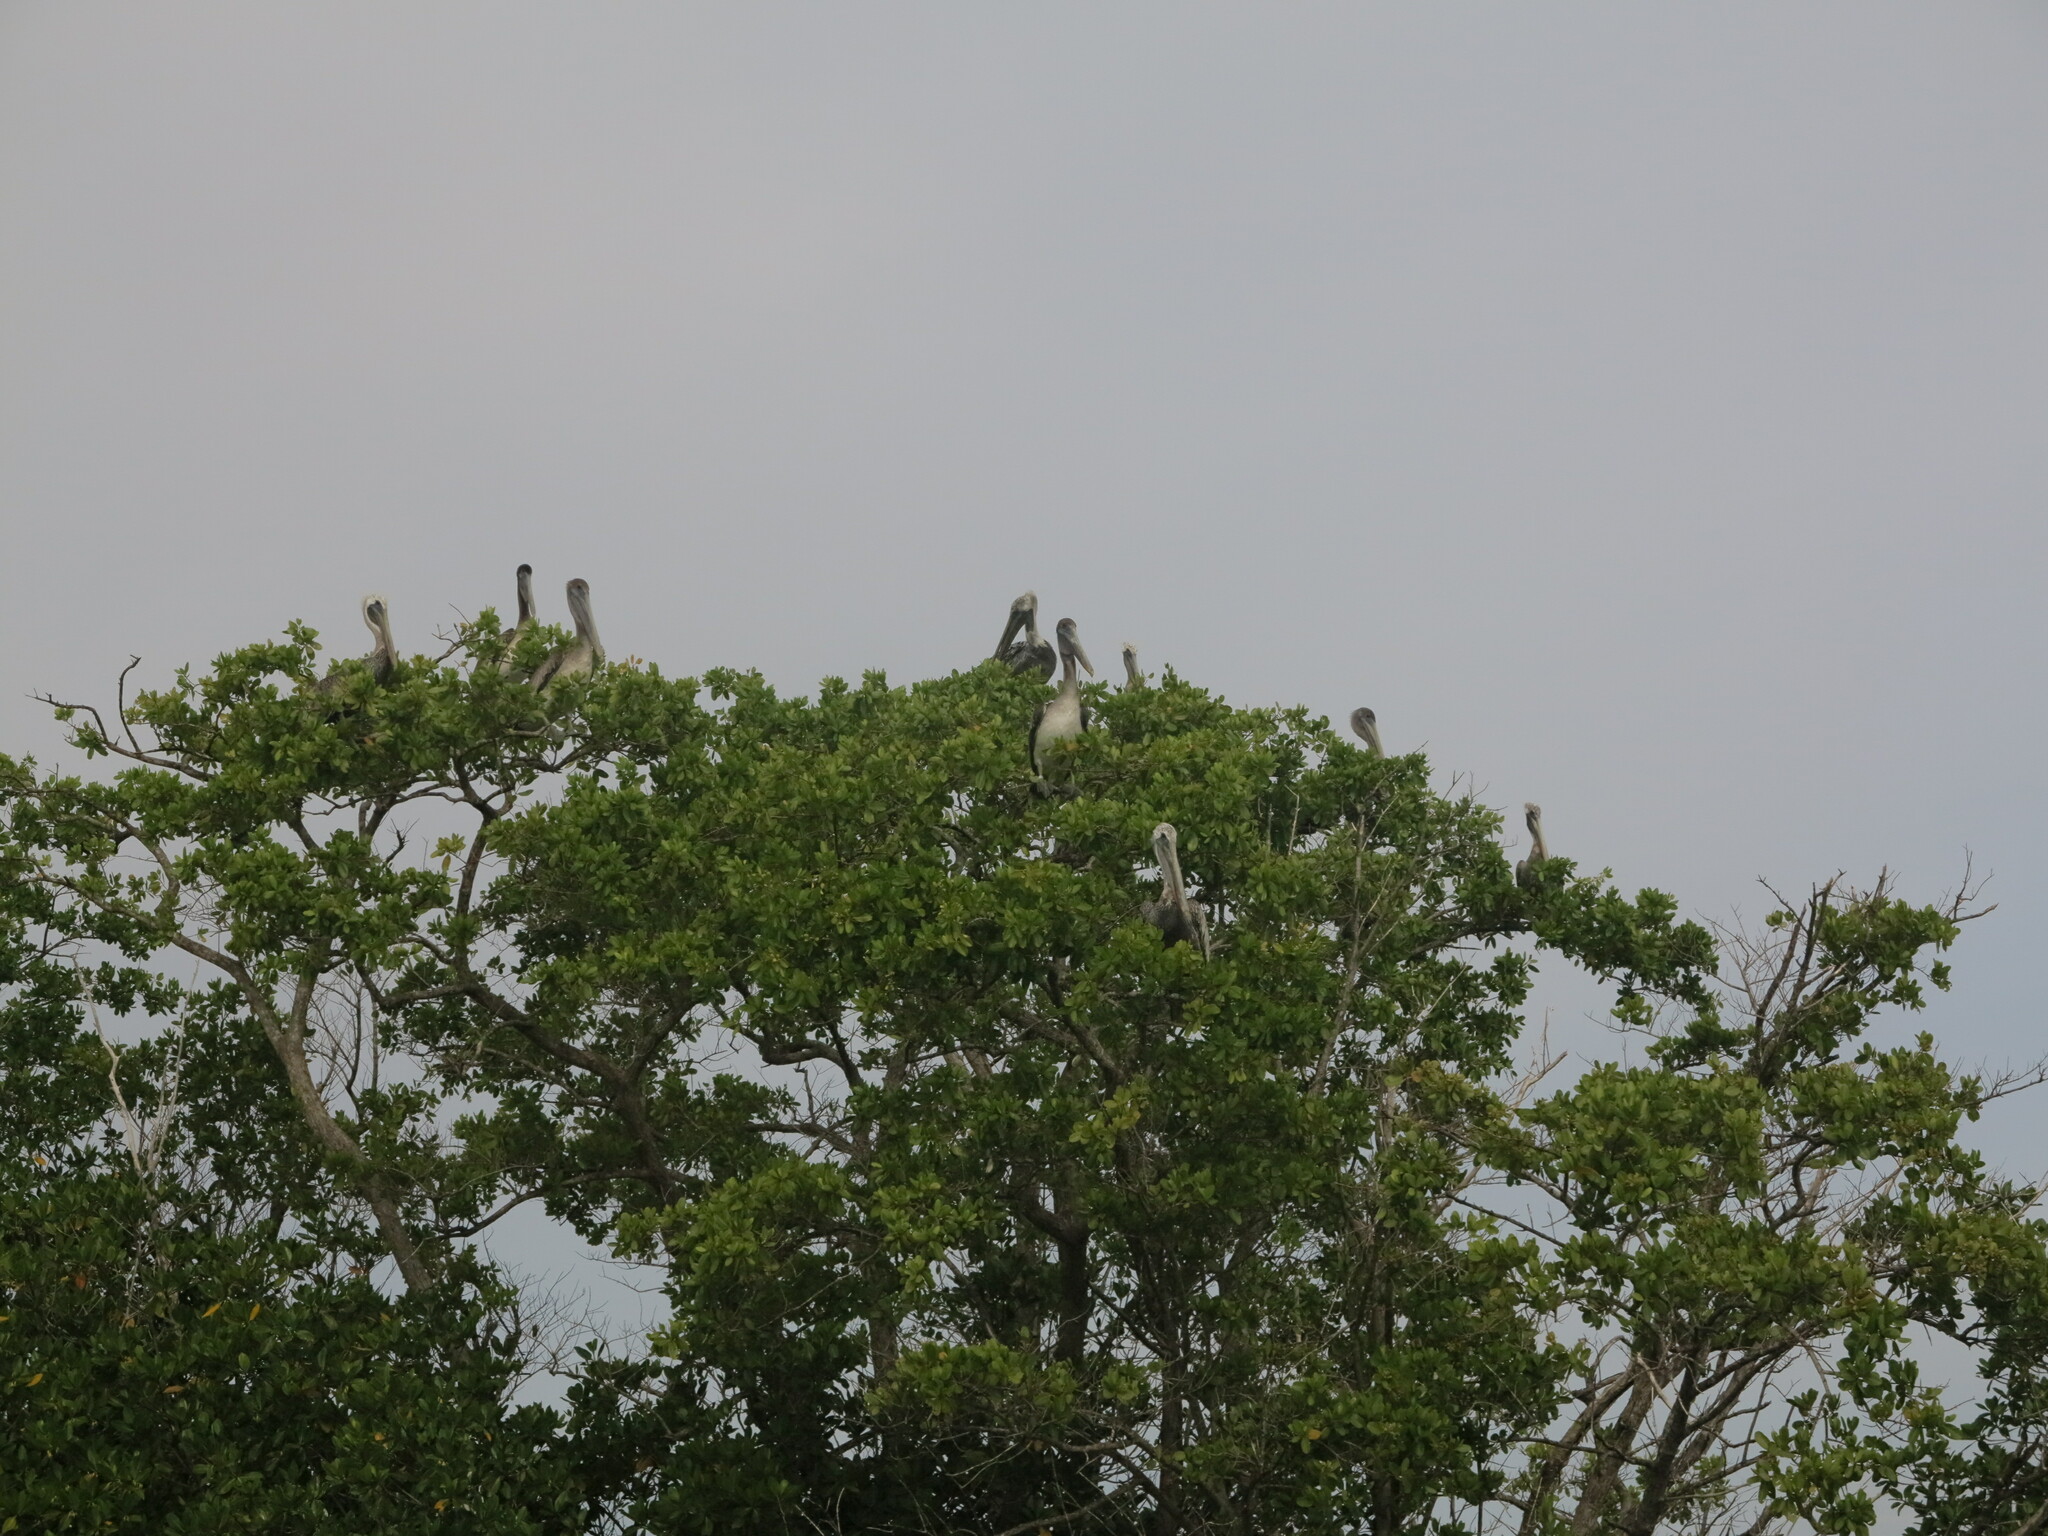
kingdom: Animalia
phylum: Chordata
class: Aves
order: Pelecaniformes
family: Pelecanidae
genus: Pelecanus
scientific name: Pelecanus occidentalis
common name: Brown pelican
